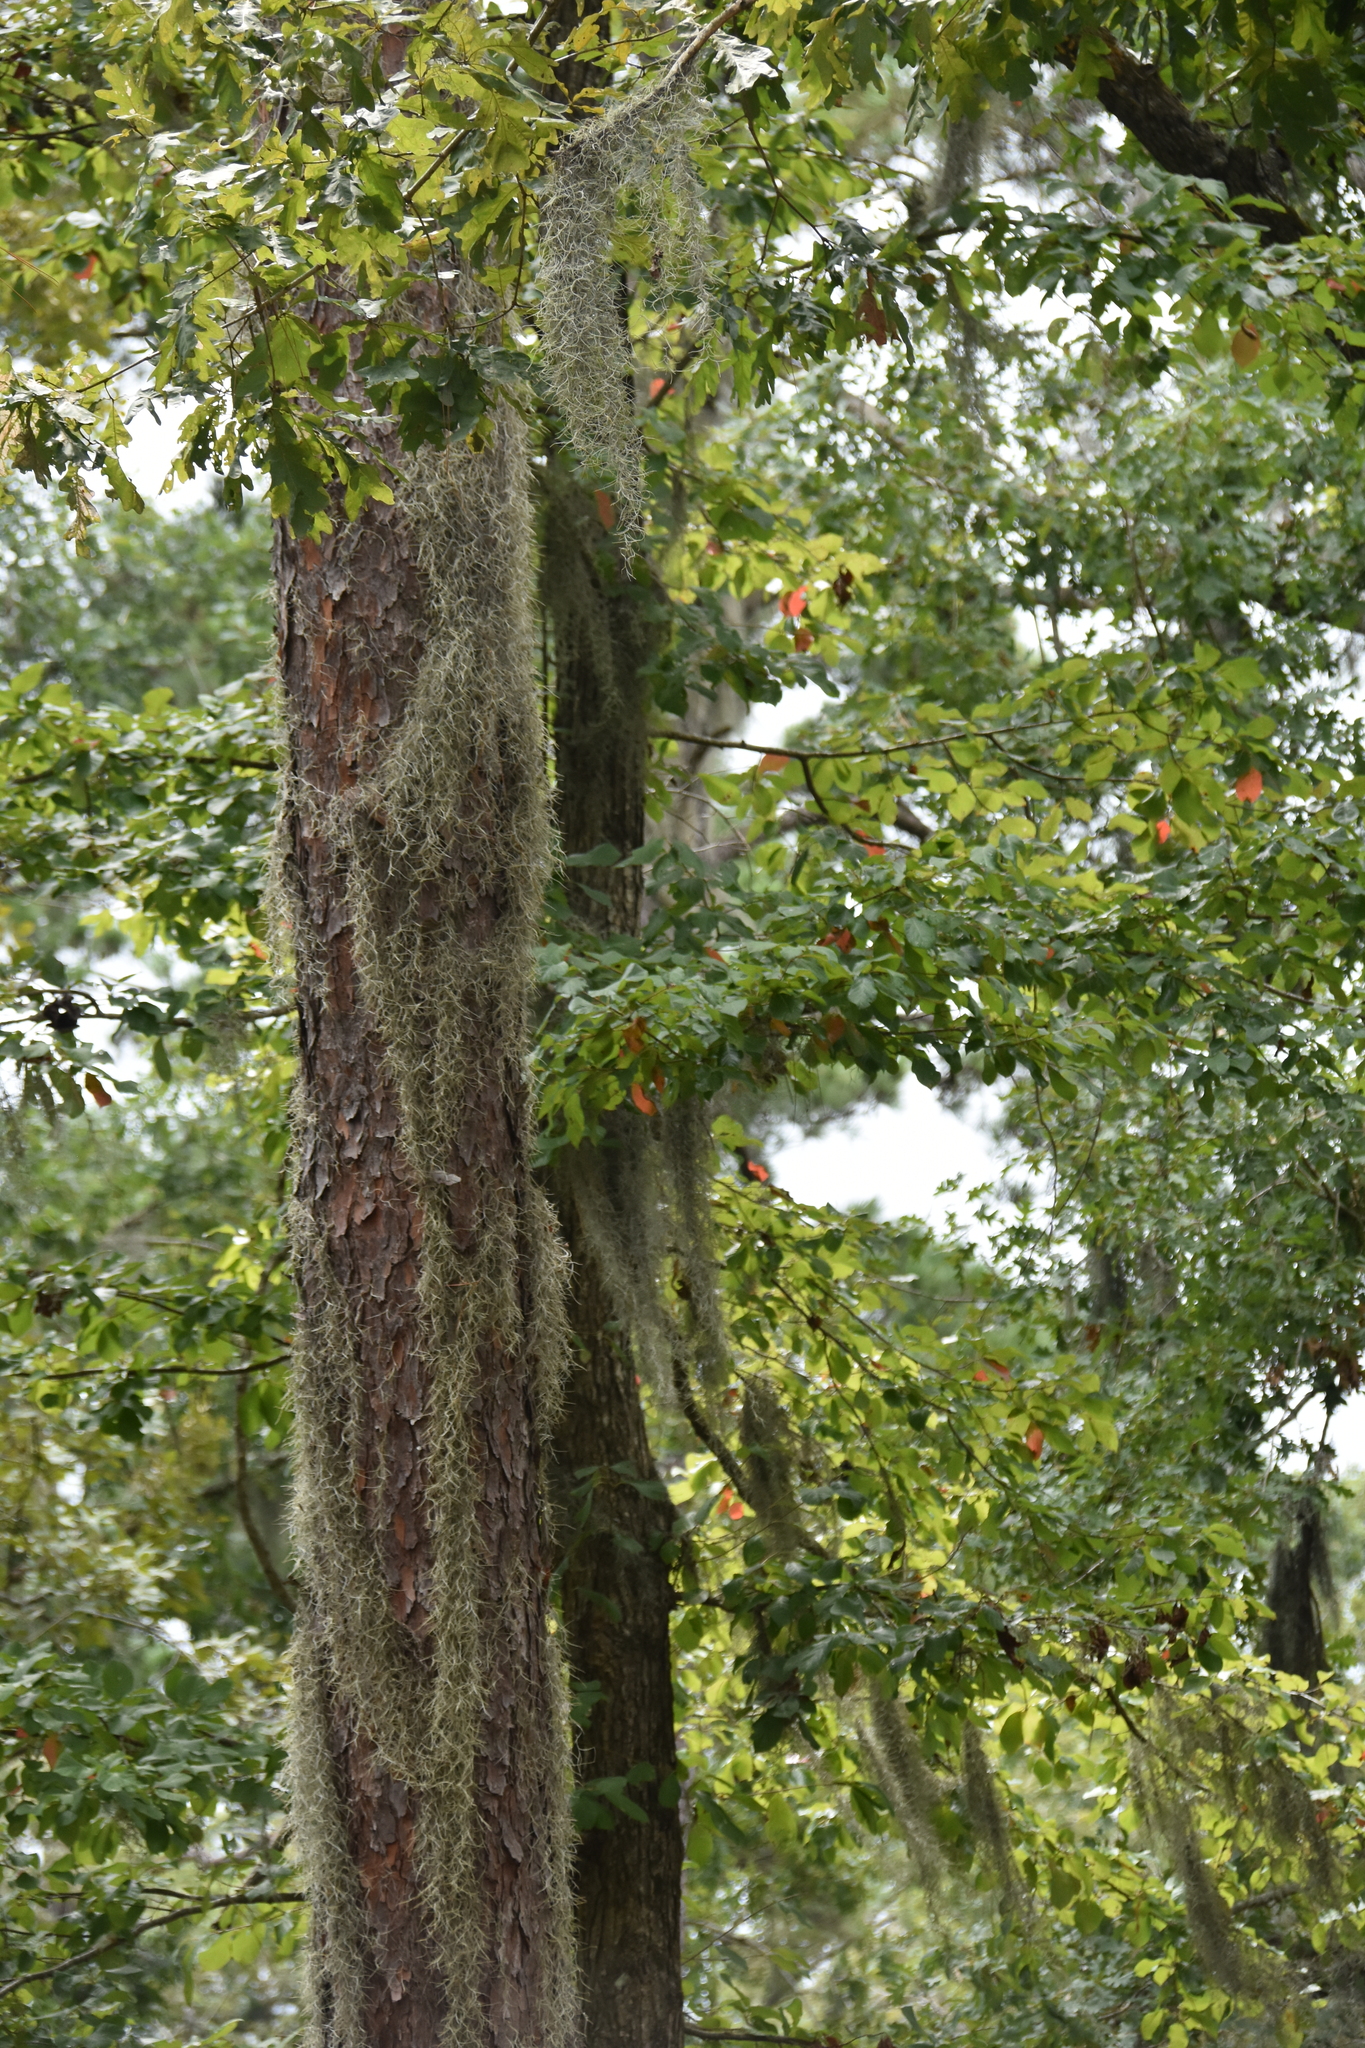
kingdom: Plantae
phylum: Tracheophyta
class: Liliopsida
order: Poales
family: Bromeliaceae
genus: Tillandsia
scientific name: Tillandsia usneoides
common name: Spanish moss
